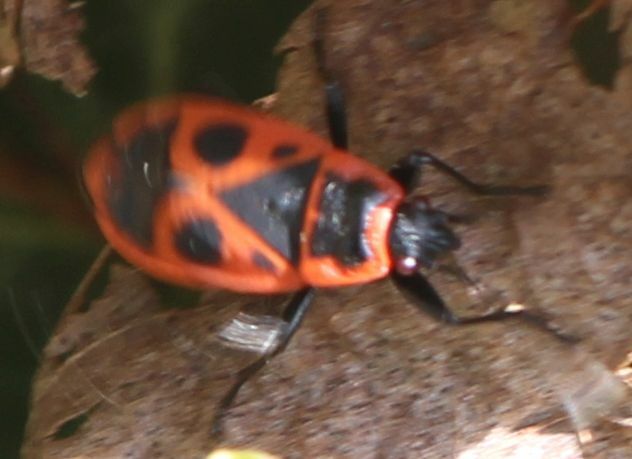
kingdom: Animalia
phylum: Arthropoda
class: Insecta
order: Hemiptera
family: Pyrrhocoridae
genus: Pyrrhocoris
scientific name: Pyrrhocoris apterus
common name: Firebug
